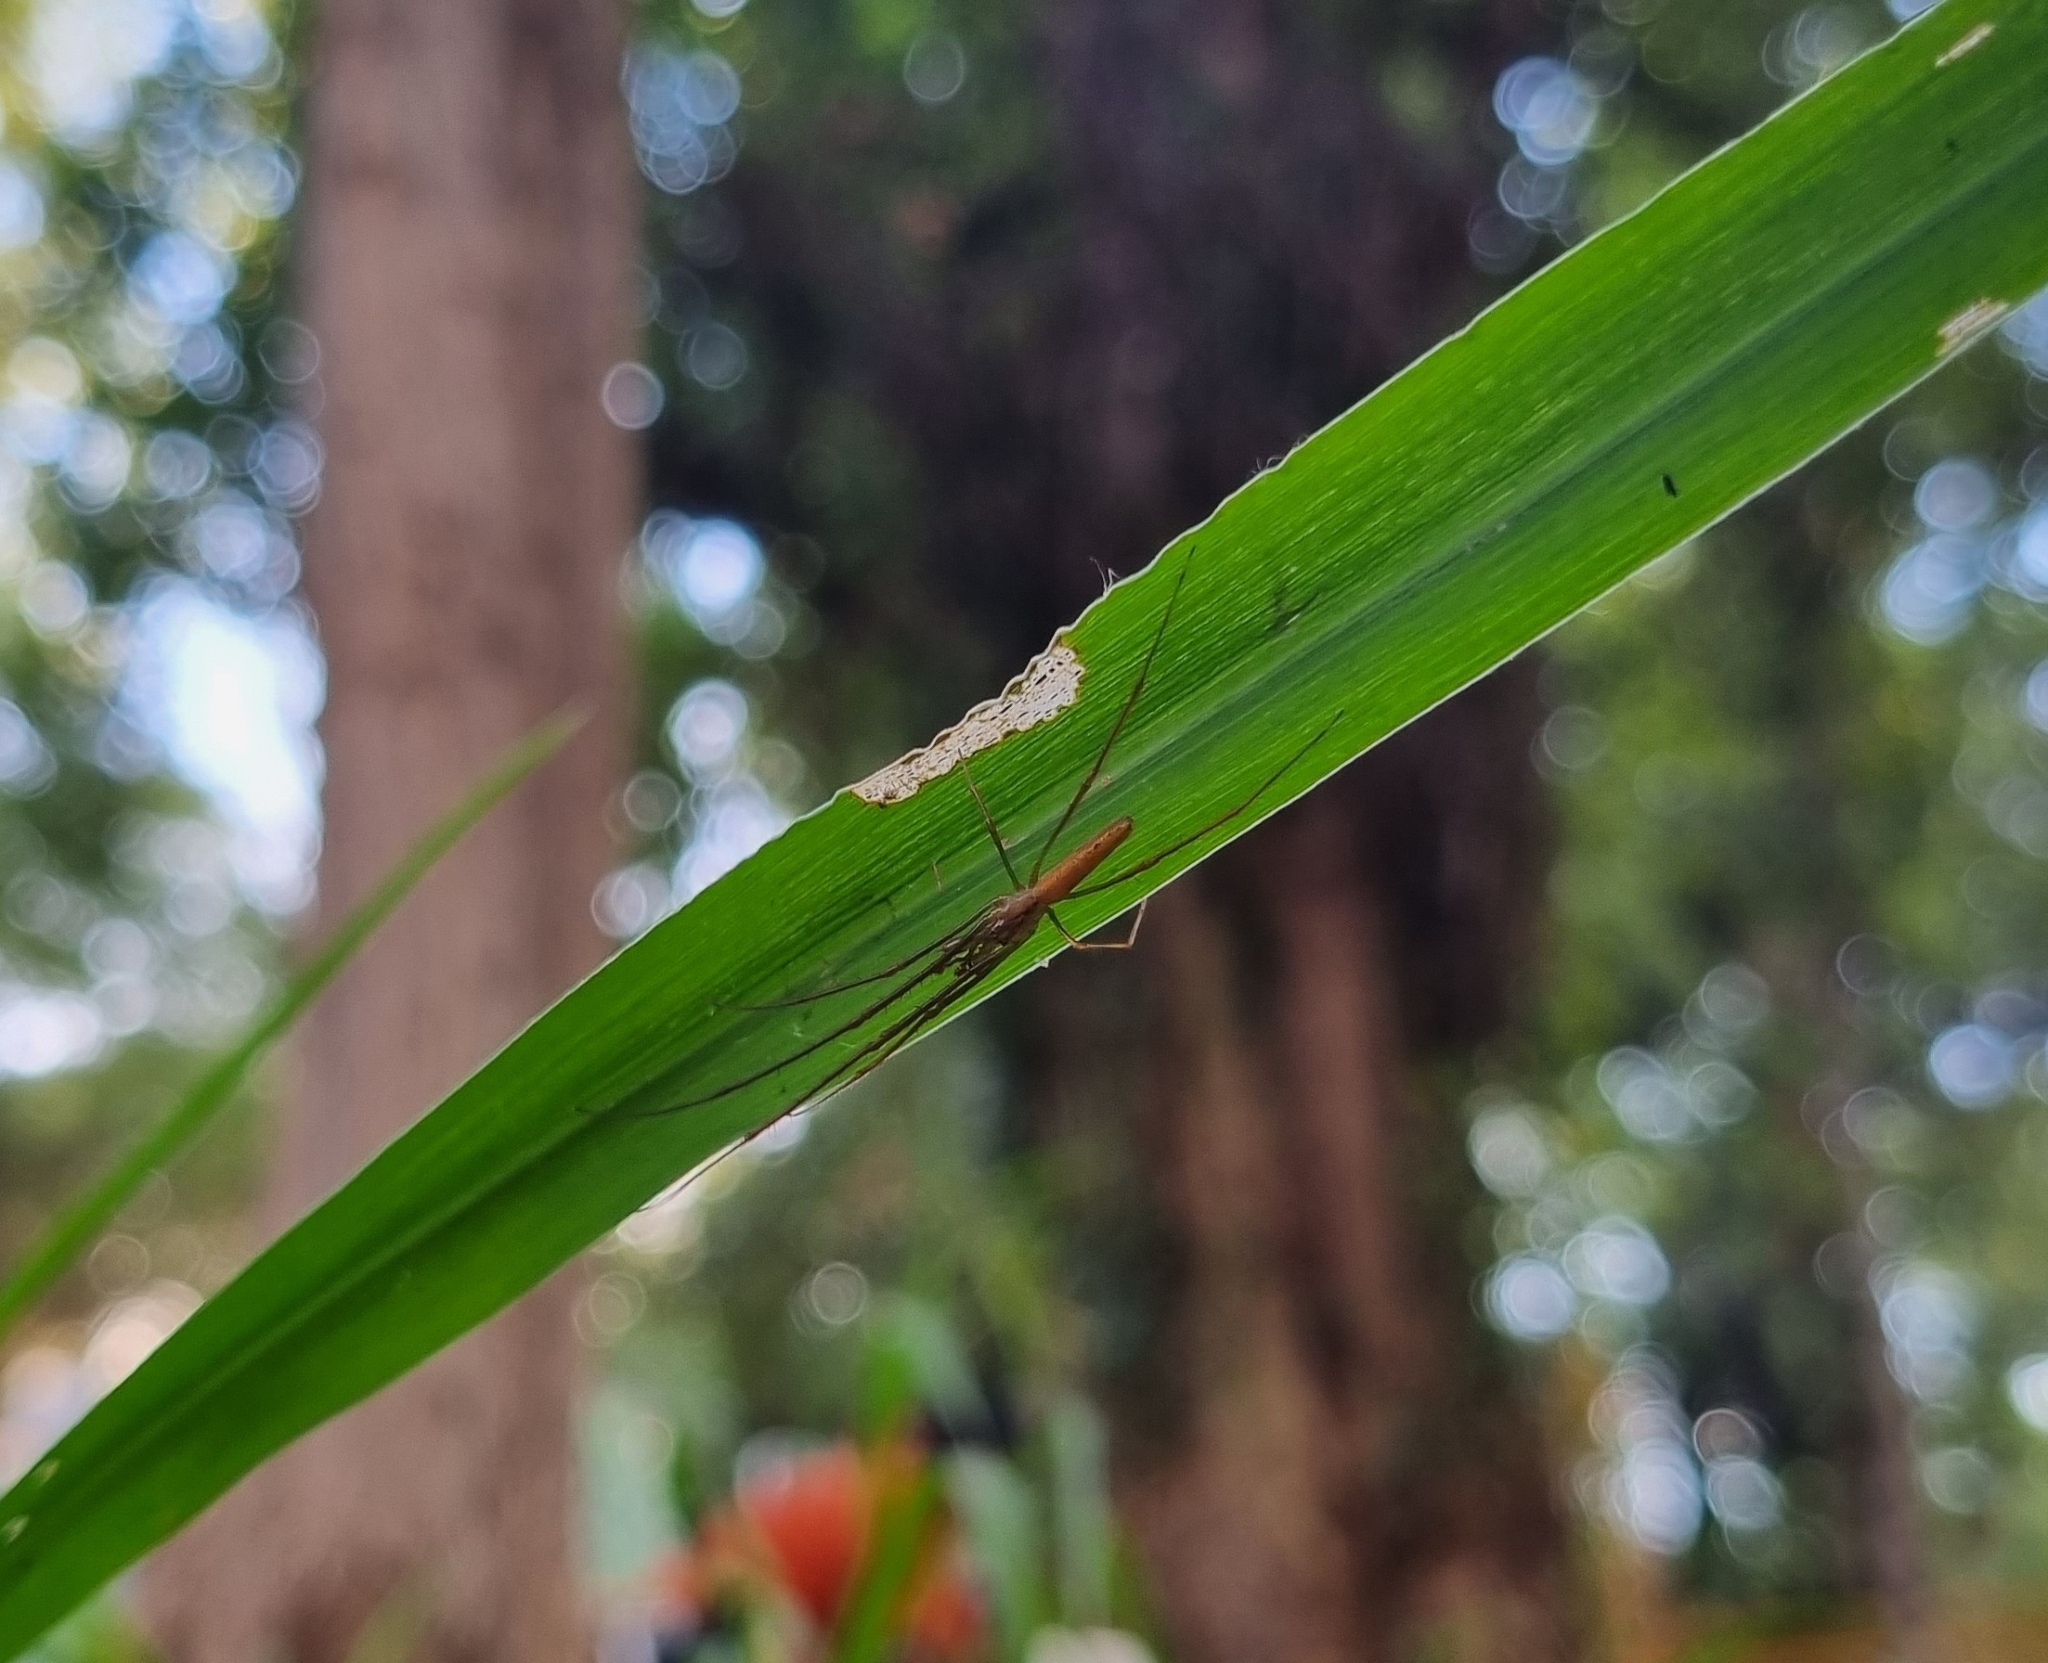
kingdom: Animalia
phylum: Arthropoda
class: Arachnida
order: Araneae
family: Tetragnathidae
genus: Tetragnatha
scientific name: Tetragnatha
